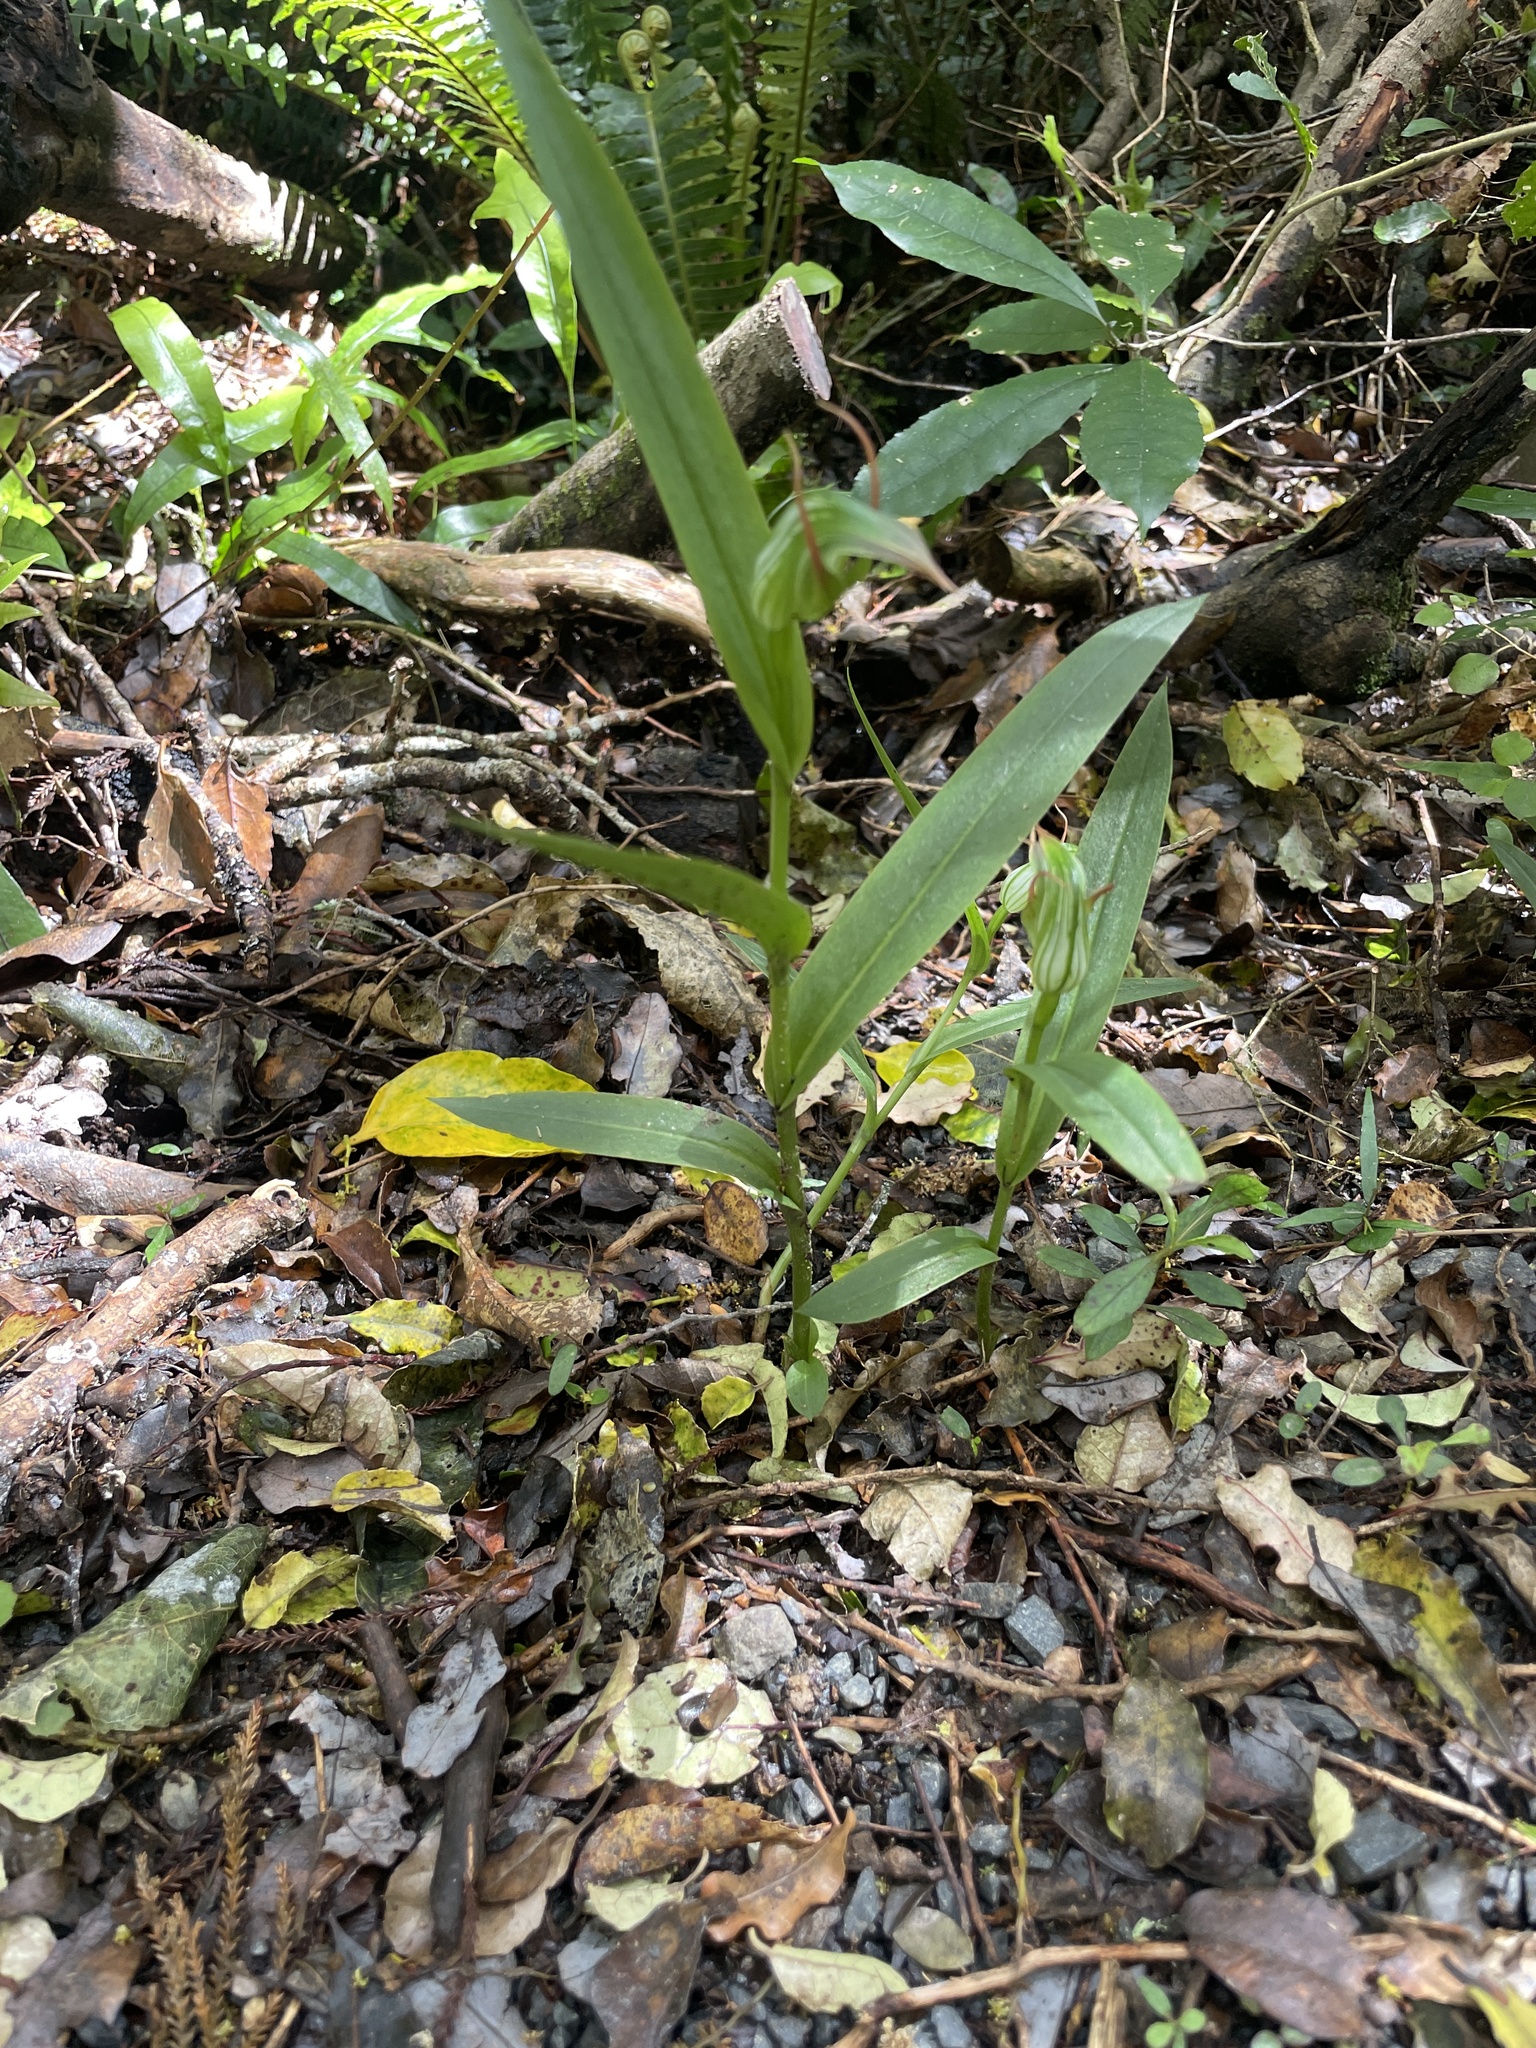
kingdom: Plantae
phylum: Tracheophyta
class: Liliopsida
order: Asparagales
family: Orchidaceae
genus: Pterostylis
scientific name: Pterostylis auriculata
